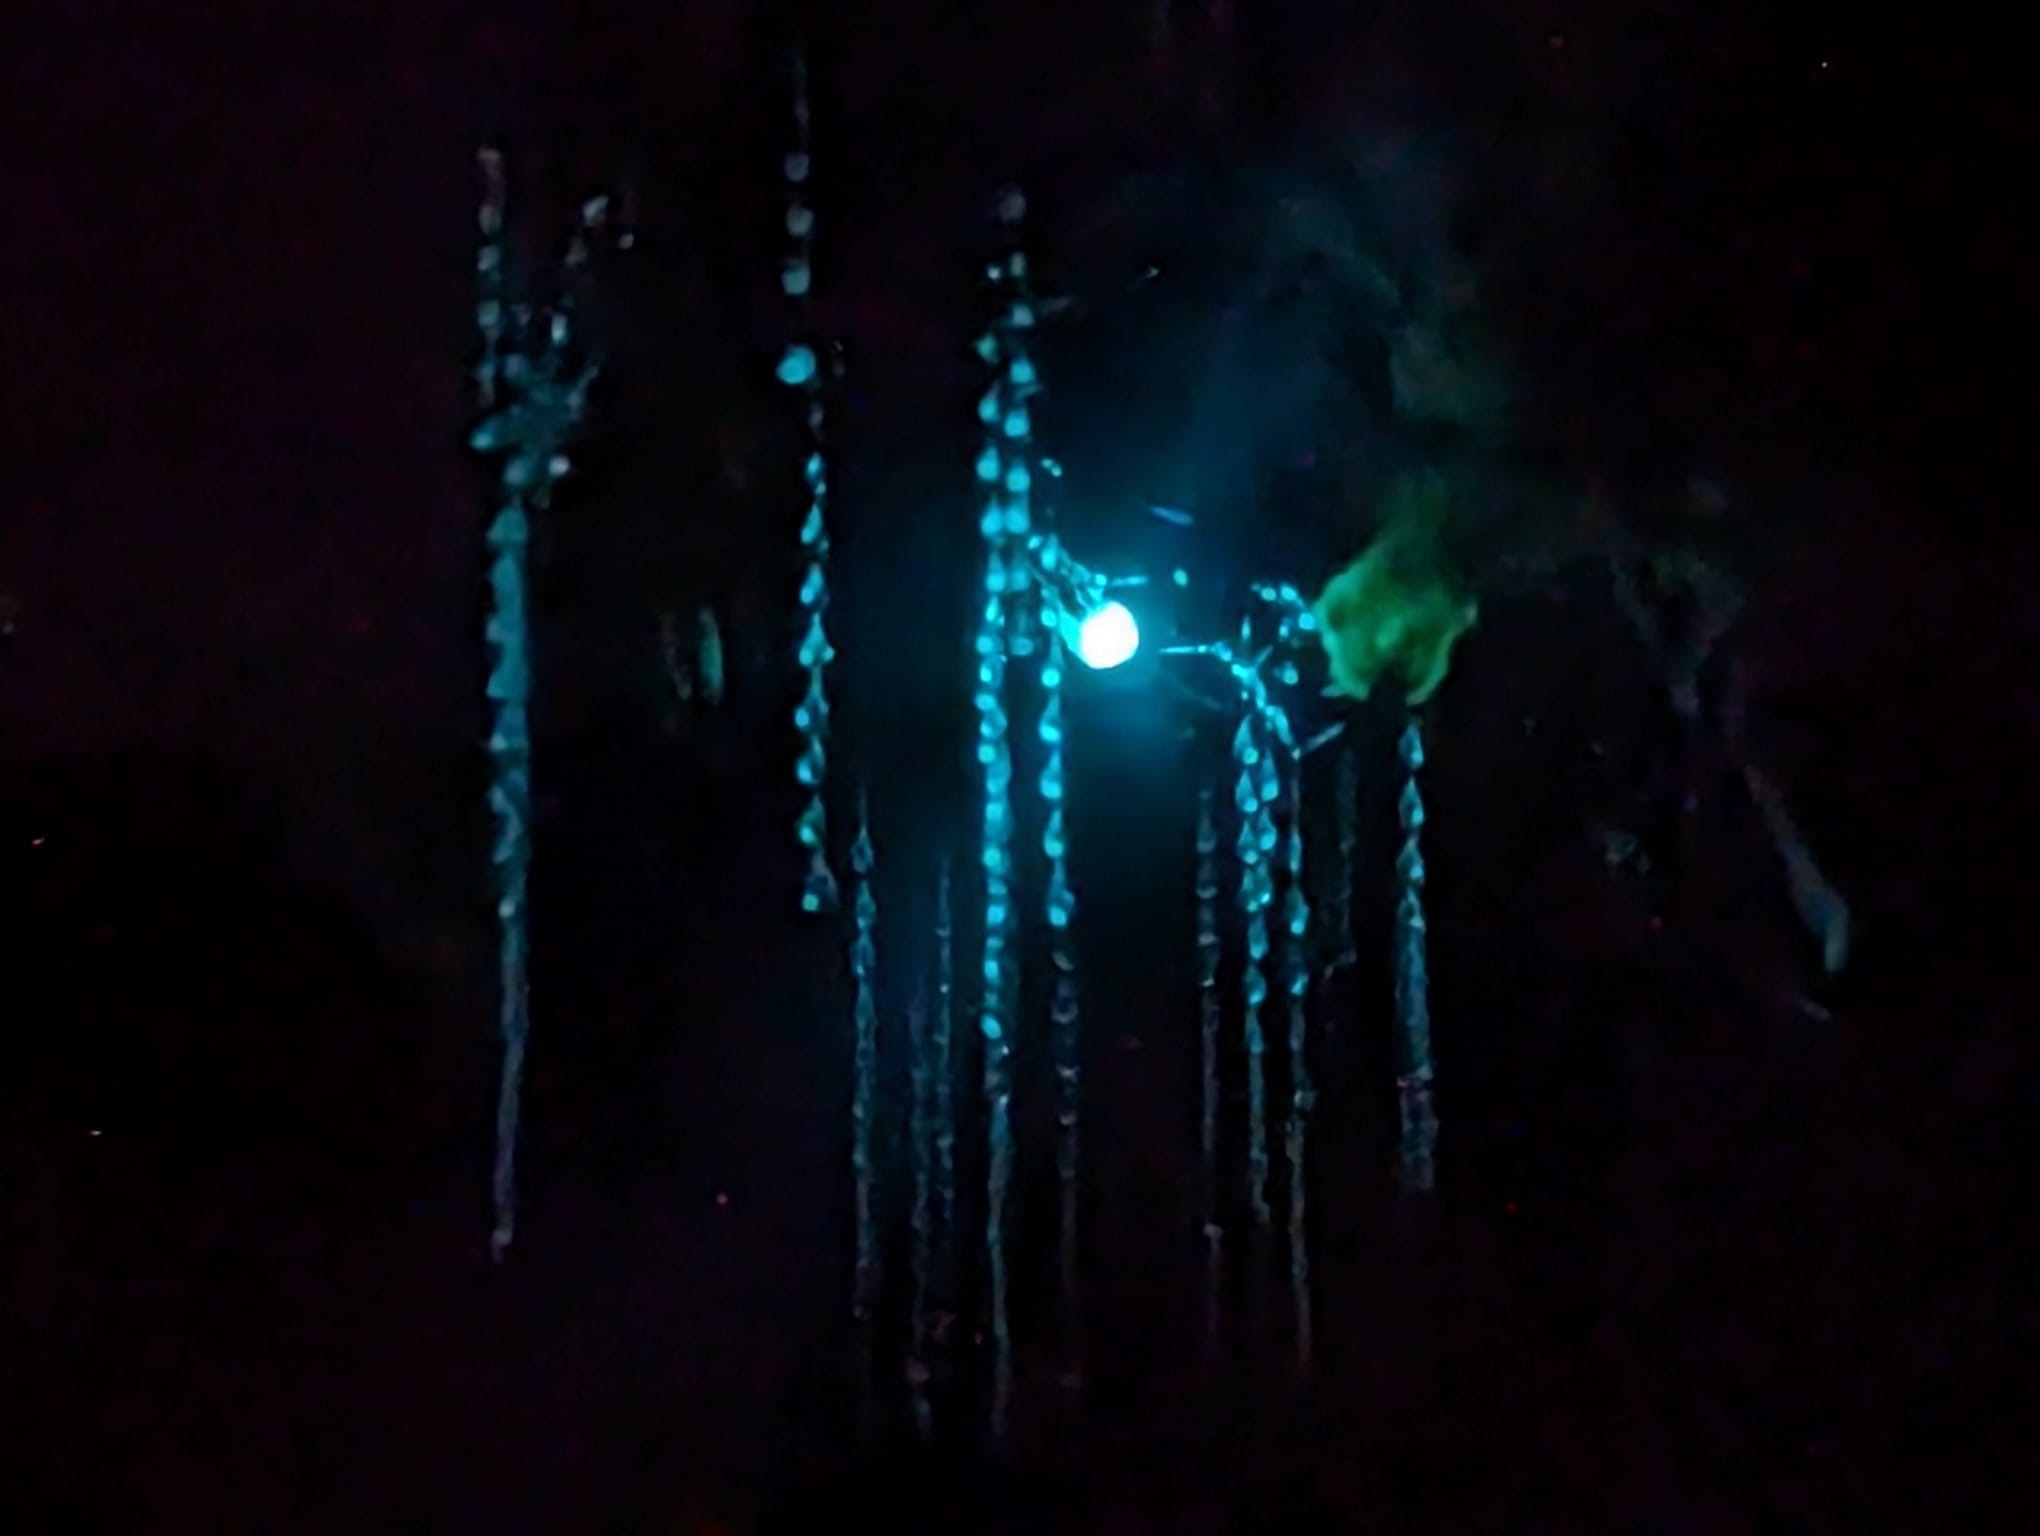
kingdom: Animalia
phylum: Arthropoda
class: Insecta
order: Diptera
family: Keroplatidae
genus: Arachnocampa
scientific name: Arachnocampa luminosa
